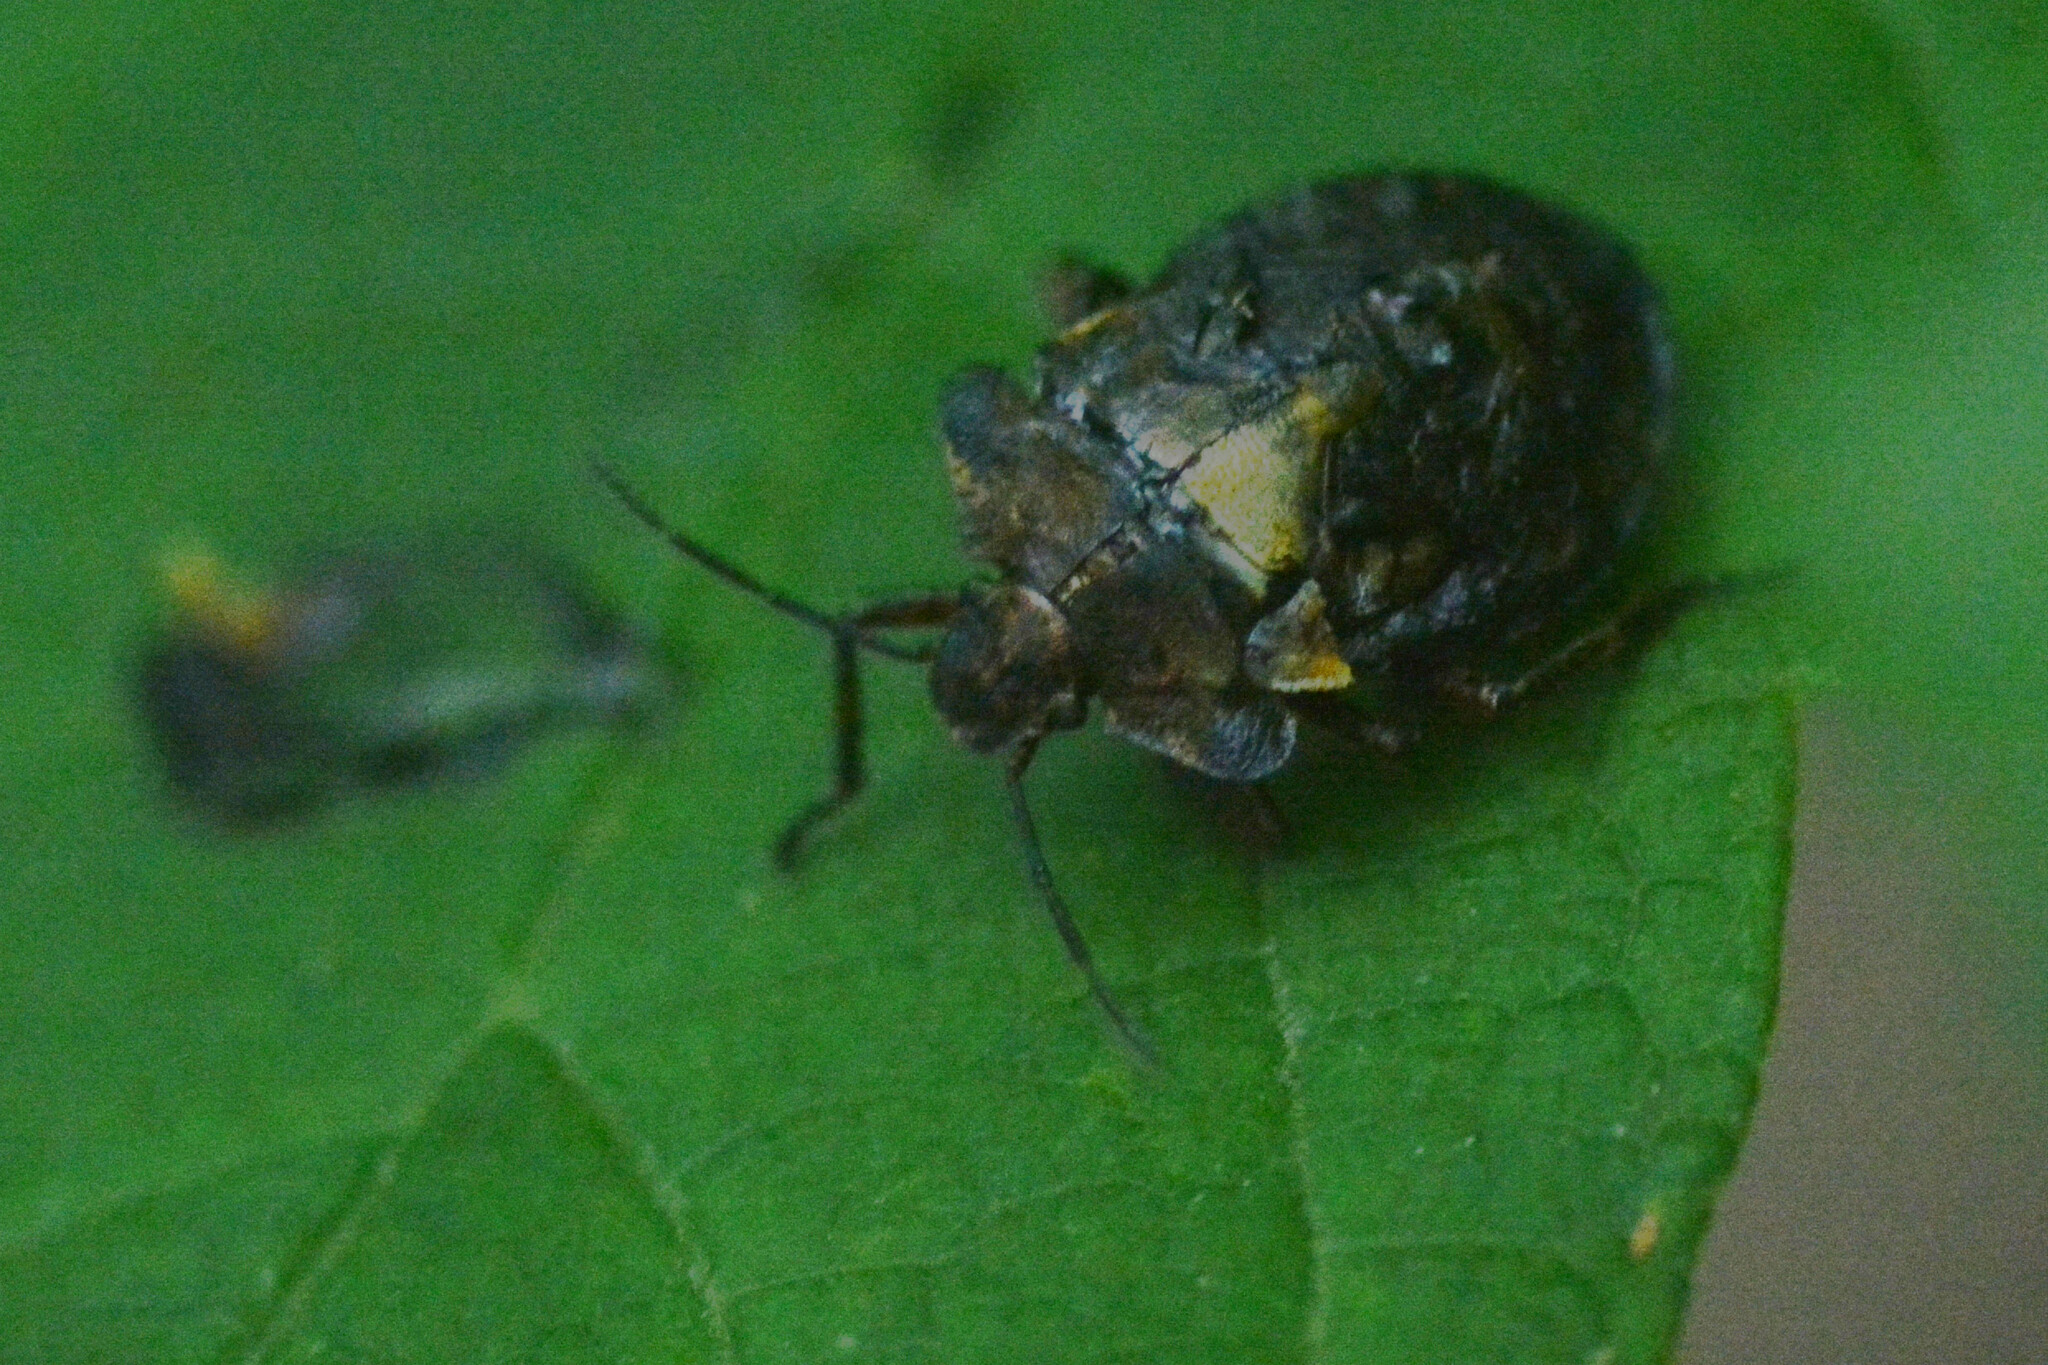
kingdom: Animalia
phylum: Arthropoda
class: Insecta
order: Hemiptera
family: Pentatomidae
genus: Pentatoma
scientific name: Pentatoma rufipes
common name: Forest bug
